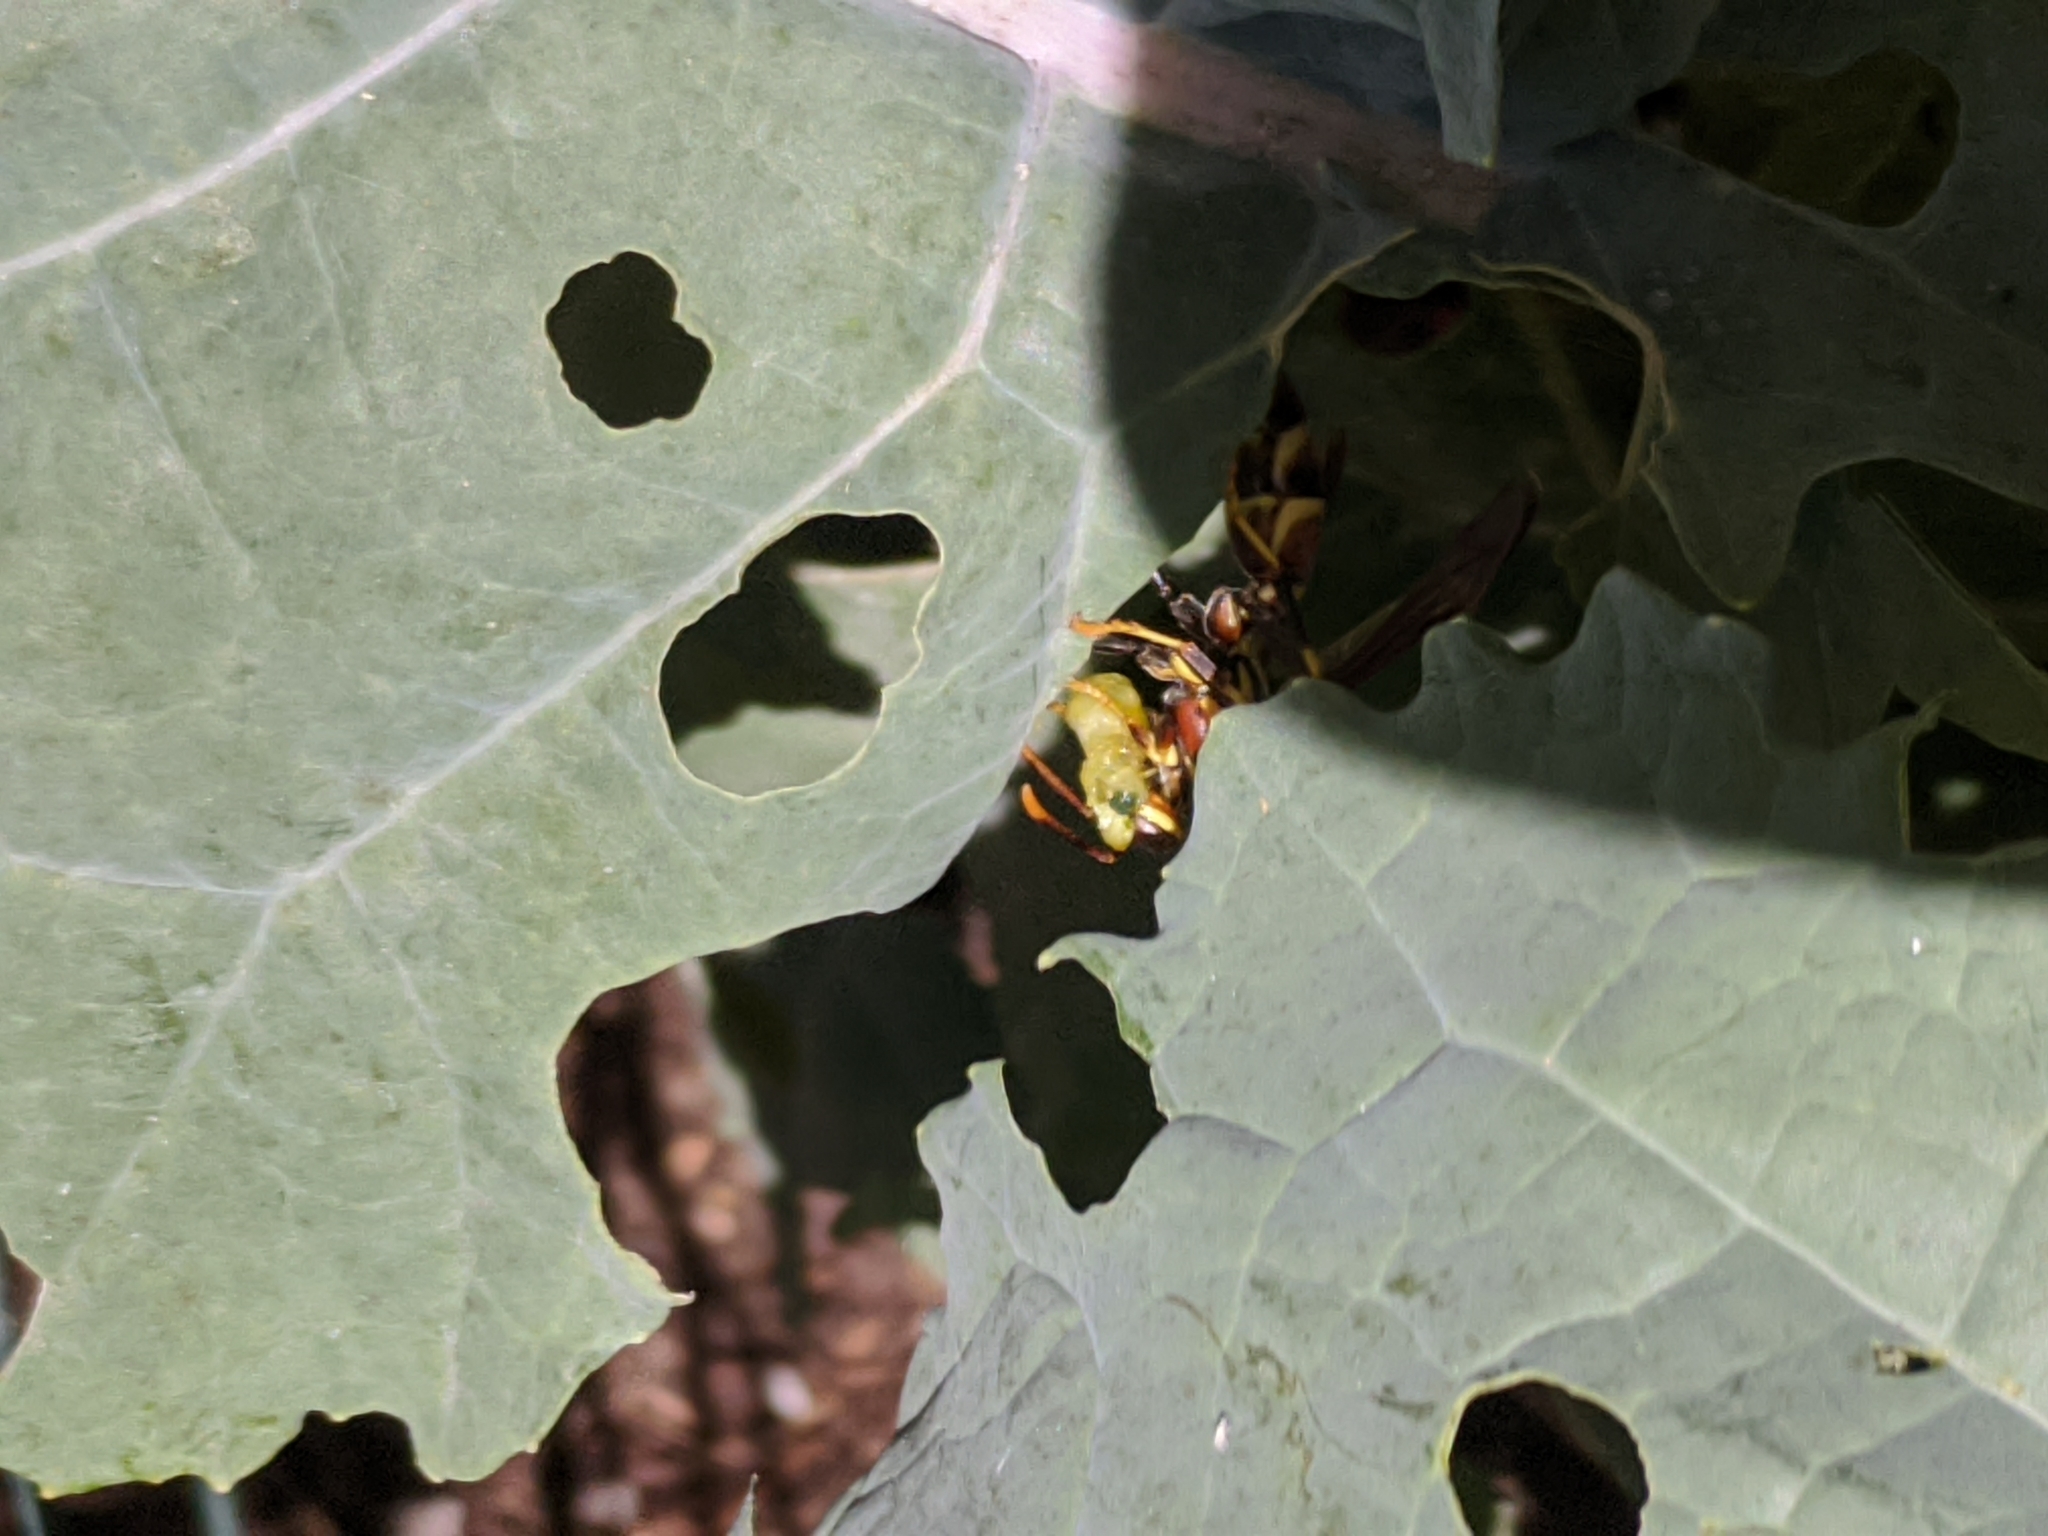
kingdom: Animalia
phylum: Arthropoda
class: Insecta
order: Hymenoptera
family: Eumenidae
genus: Polistes
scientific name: Polistes exclamans
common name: Paper wasp
